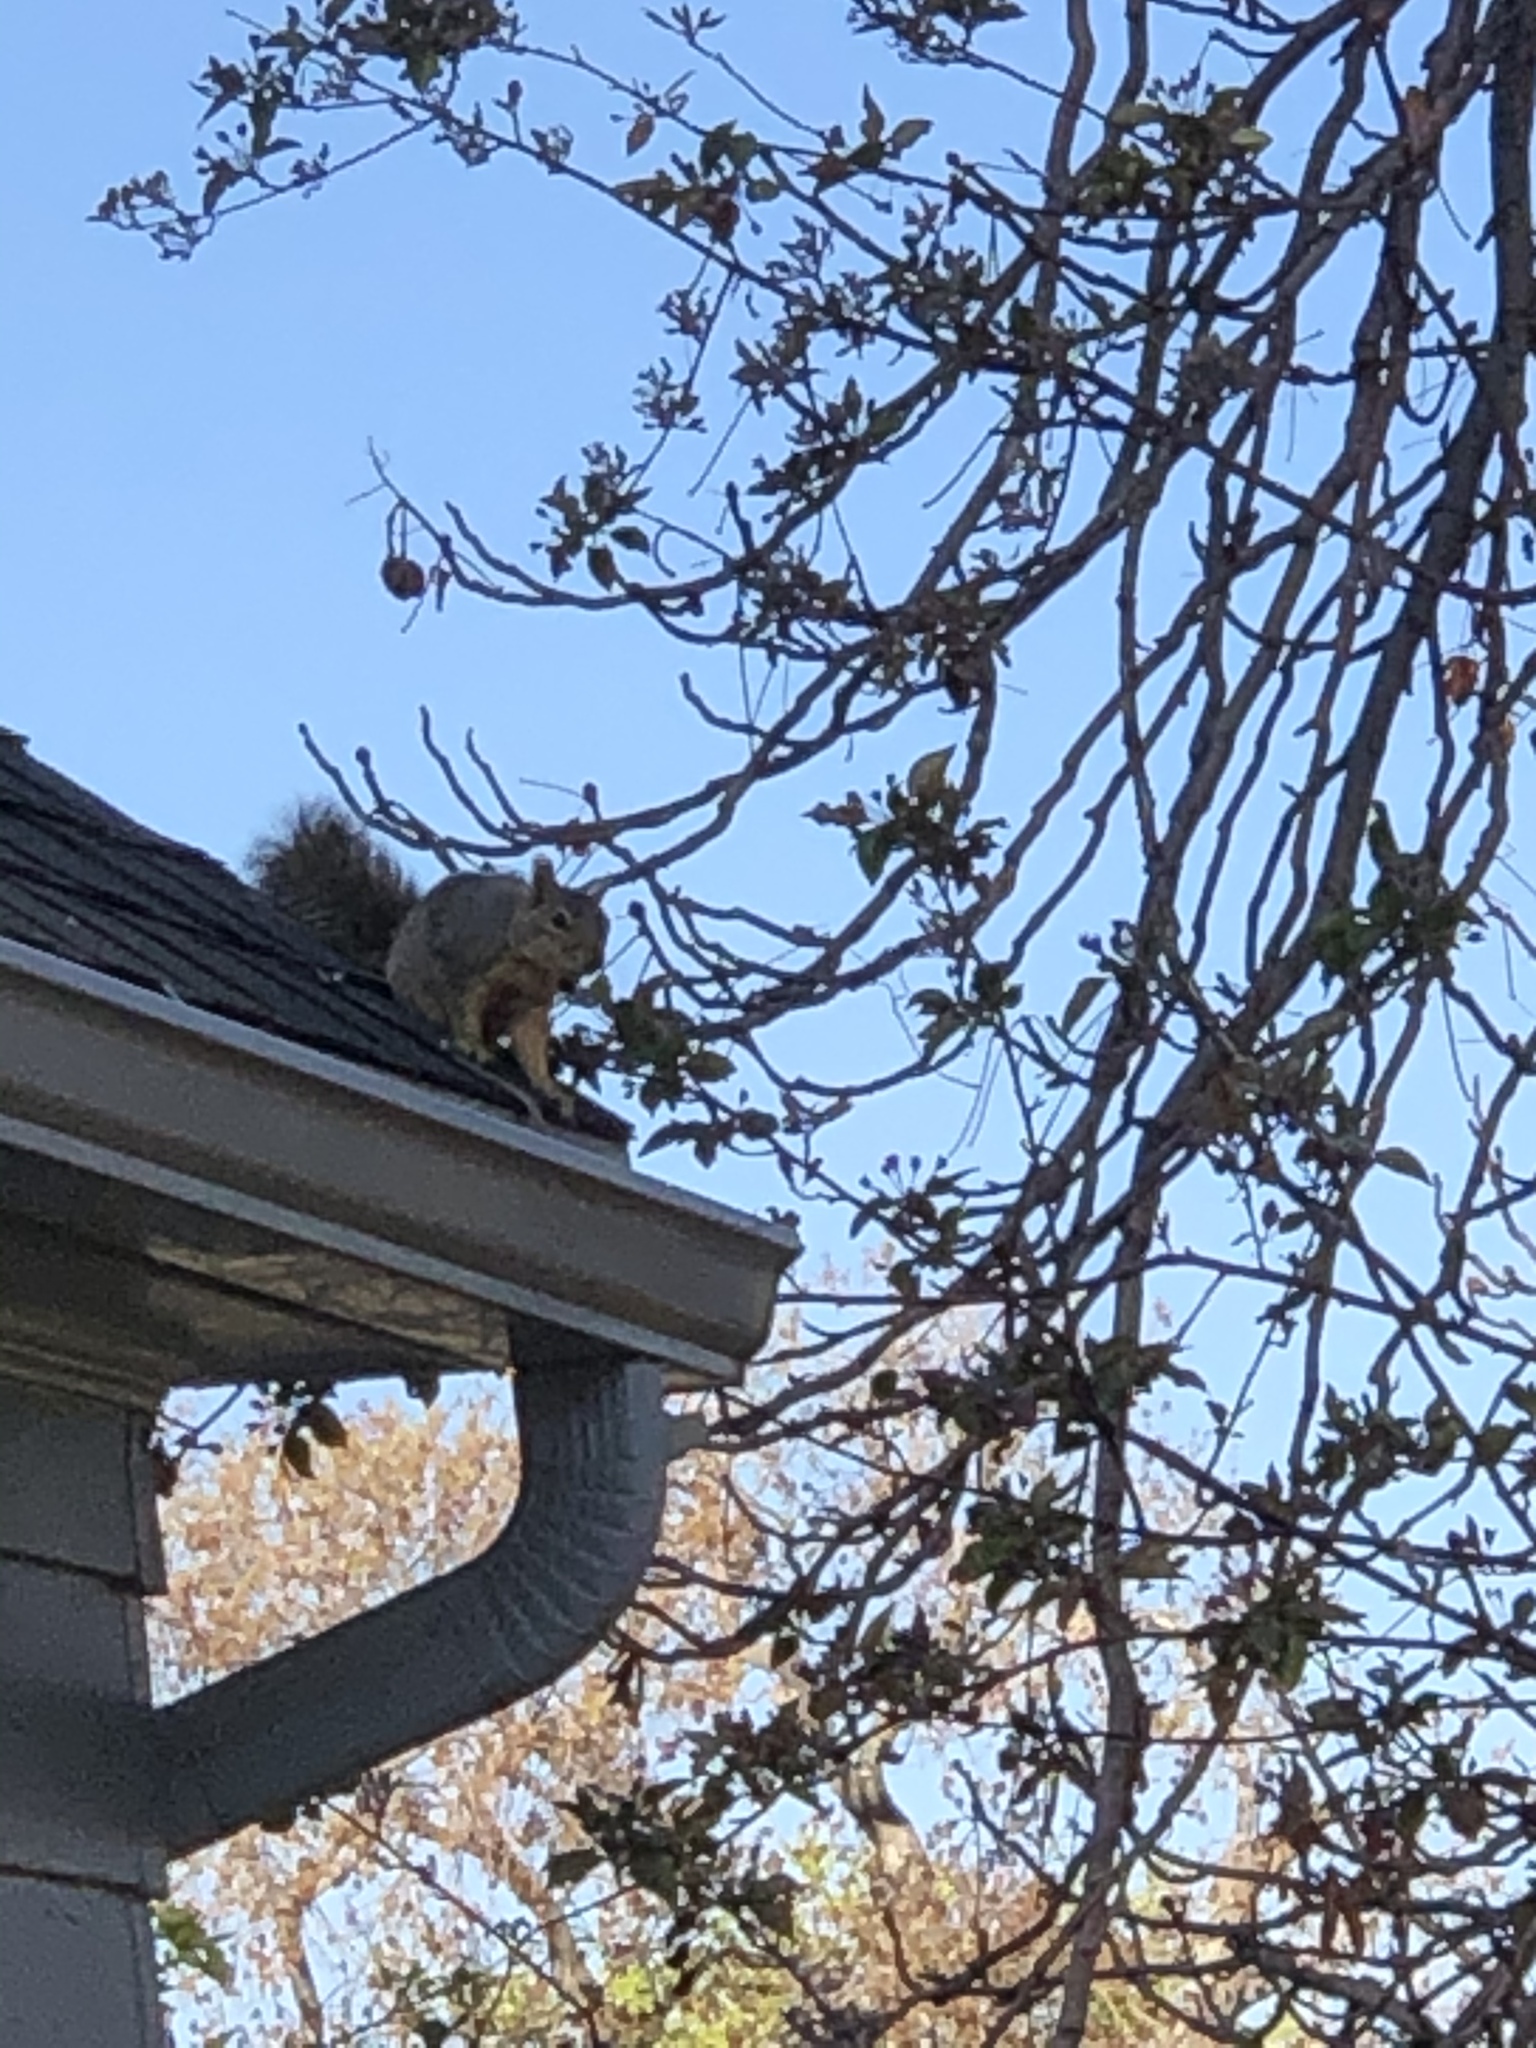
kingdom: Animalia
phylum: Chordata
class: Mammalia
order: Rodentia
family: Sciuridae
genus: Sciurus
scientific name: Sciurus niger
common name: Fox squirrel
